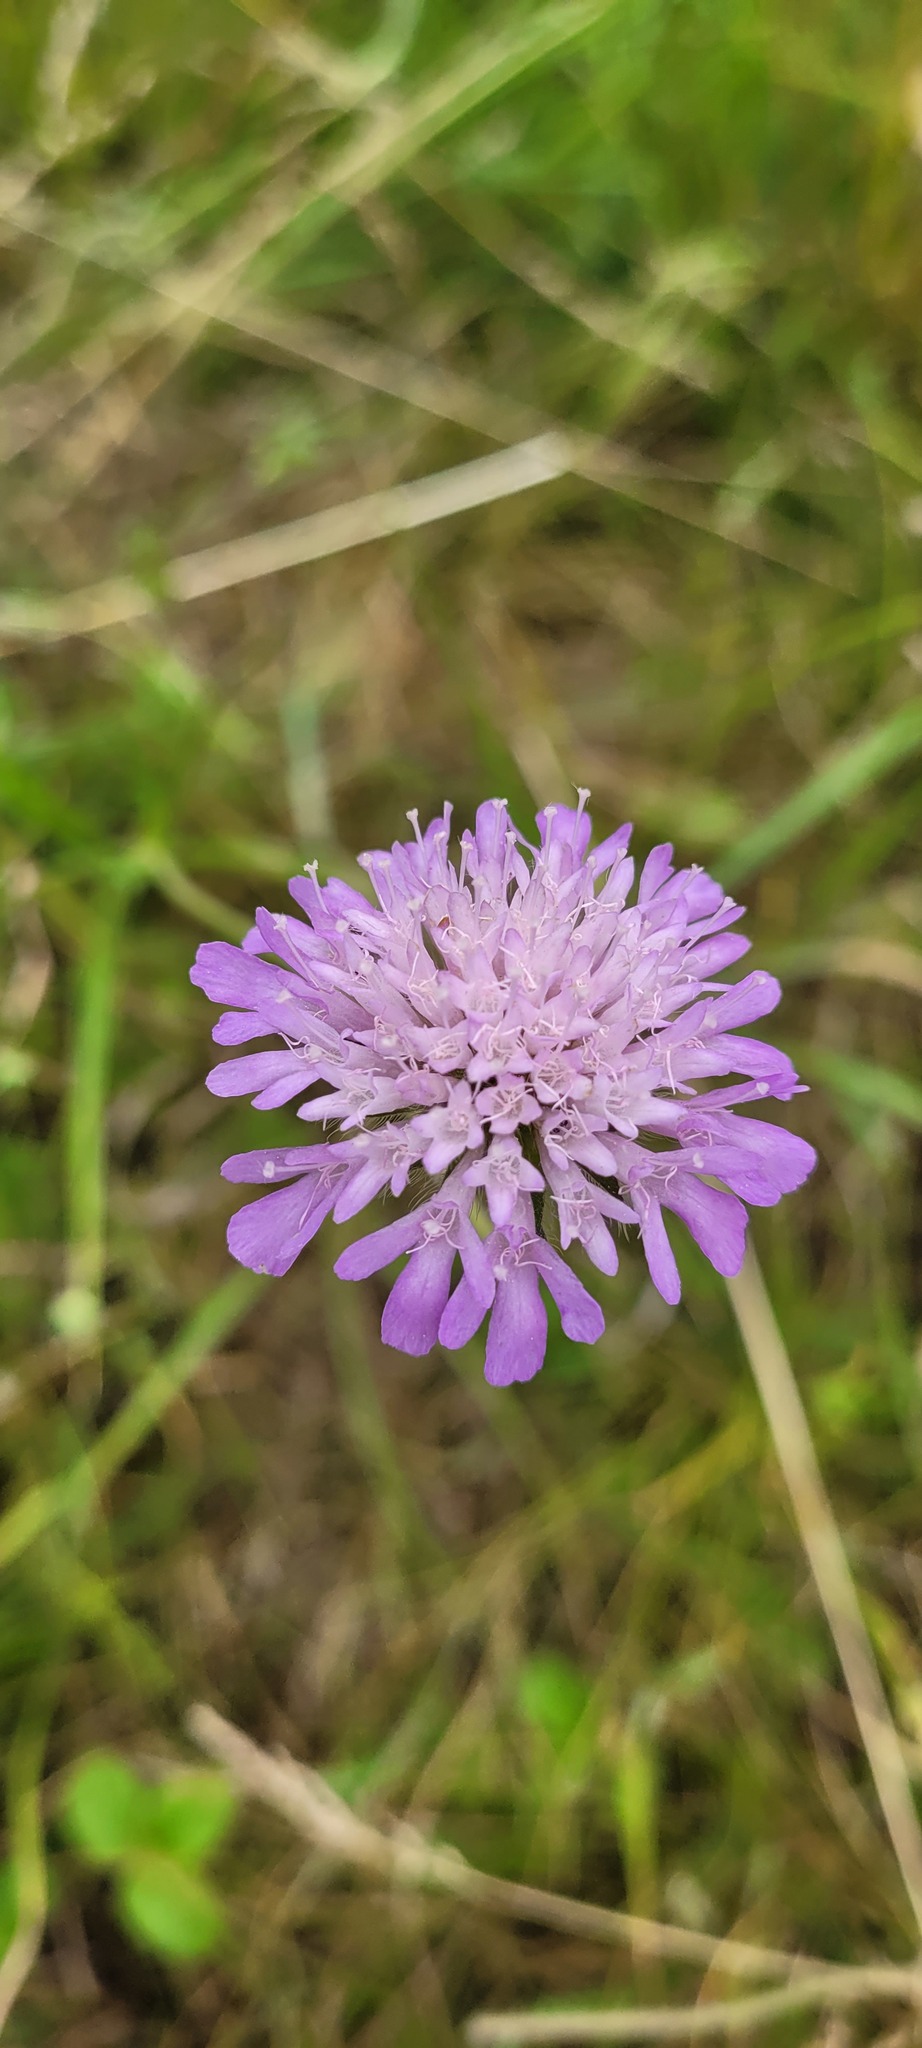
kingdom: Plantae
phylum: Tracheophyta
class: Magnoliopsida
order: Dipsacales
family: Caprifoliaceae
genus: Knautia
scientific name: Knautia arvensis
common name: Field scabiosa
